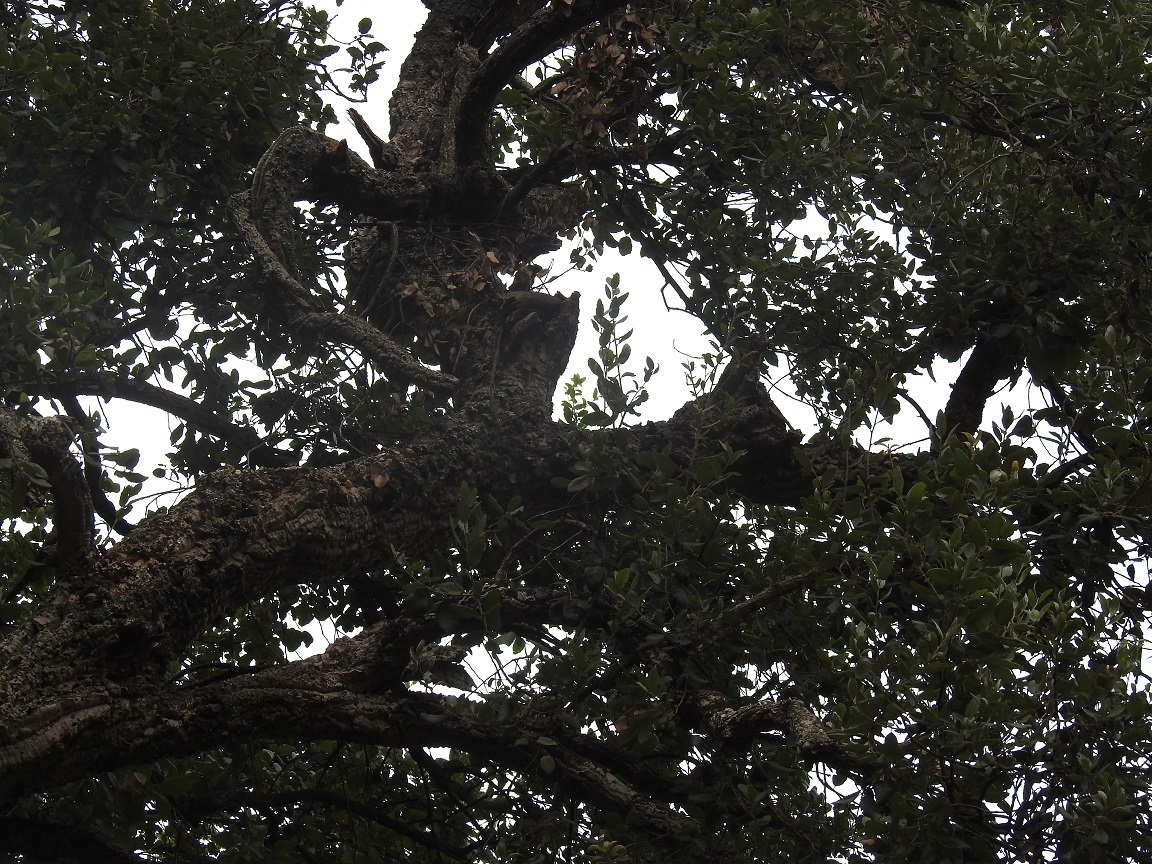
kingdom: Plantae
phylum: Tracheophyta
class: Magnoliopsida
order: Fagales
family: Fagaceae
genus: Quercus
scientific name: Quercus suber
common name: Cork oak
